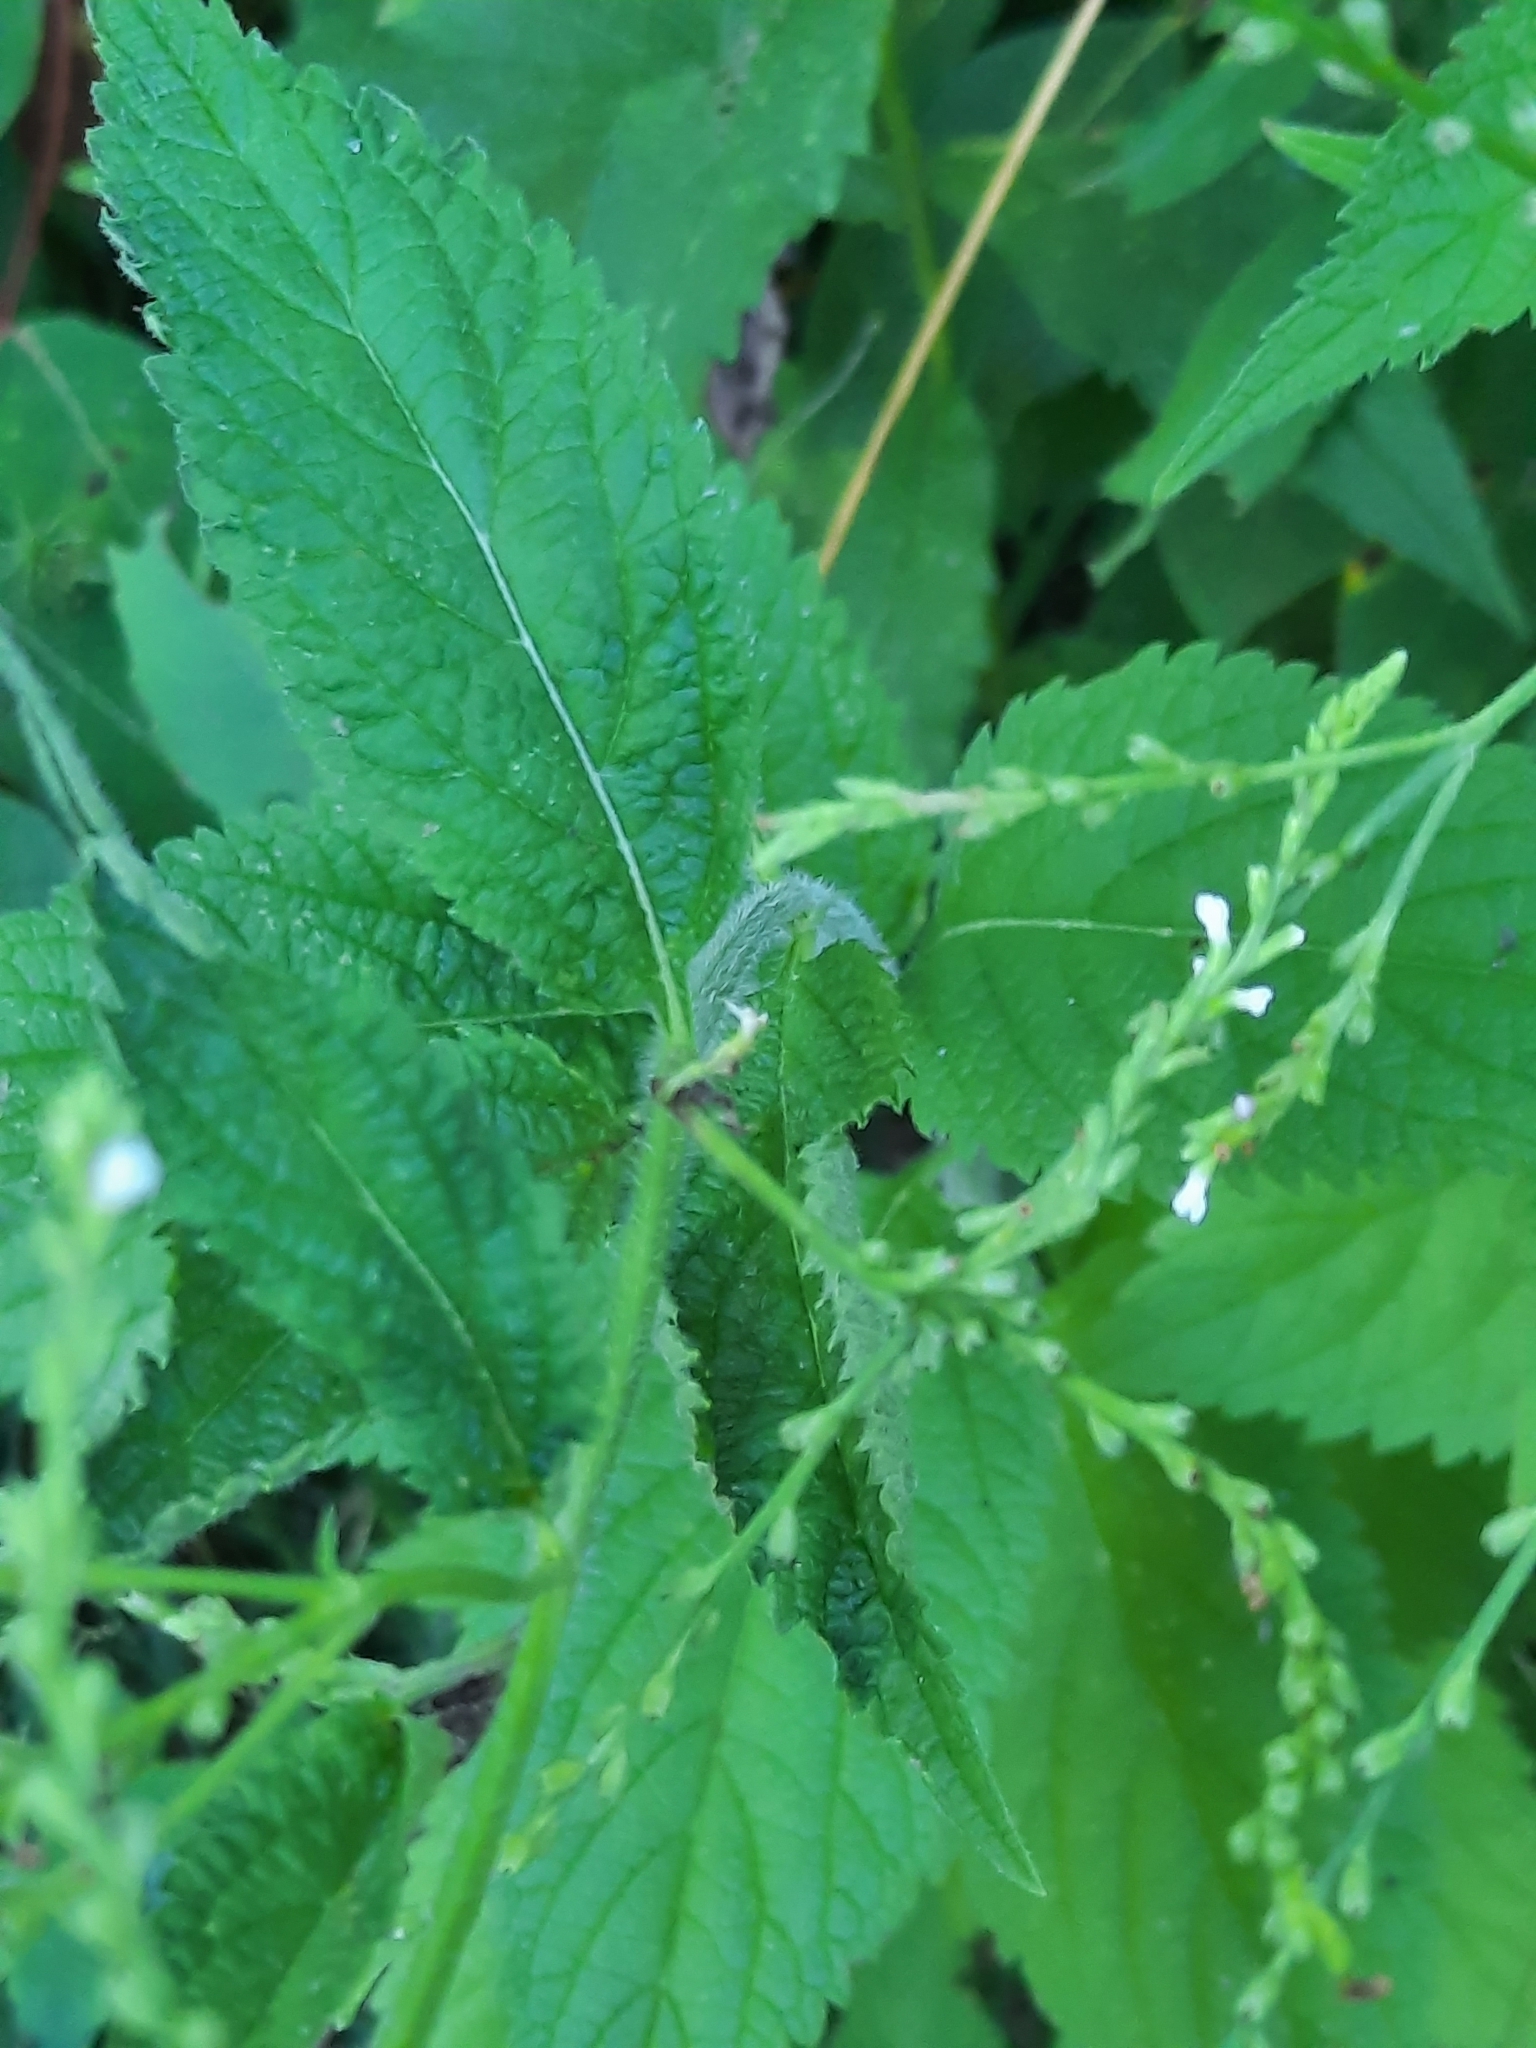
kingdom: Plantae
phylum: Tracheophyta
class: Magnoliopsida
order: Lamiales
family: Verbenaceae
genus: Verbena
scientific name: Verbena urticifolia
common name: Nettle-leaved vervain
